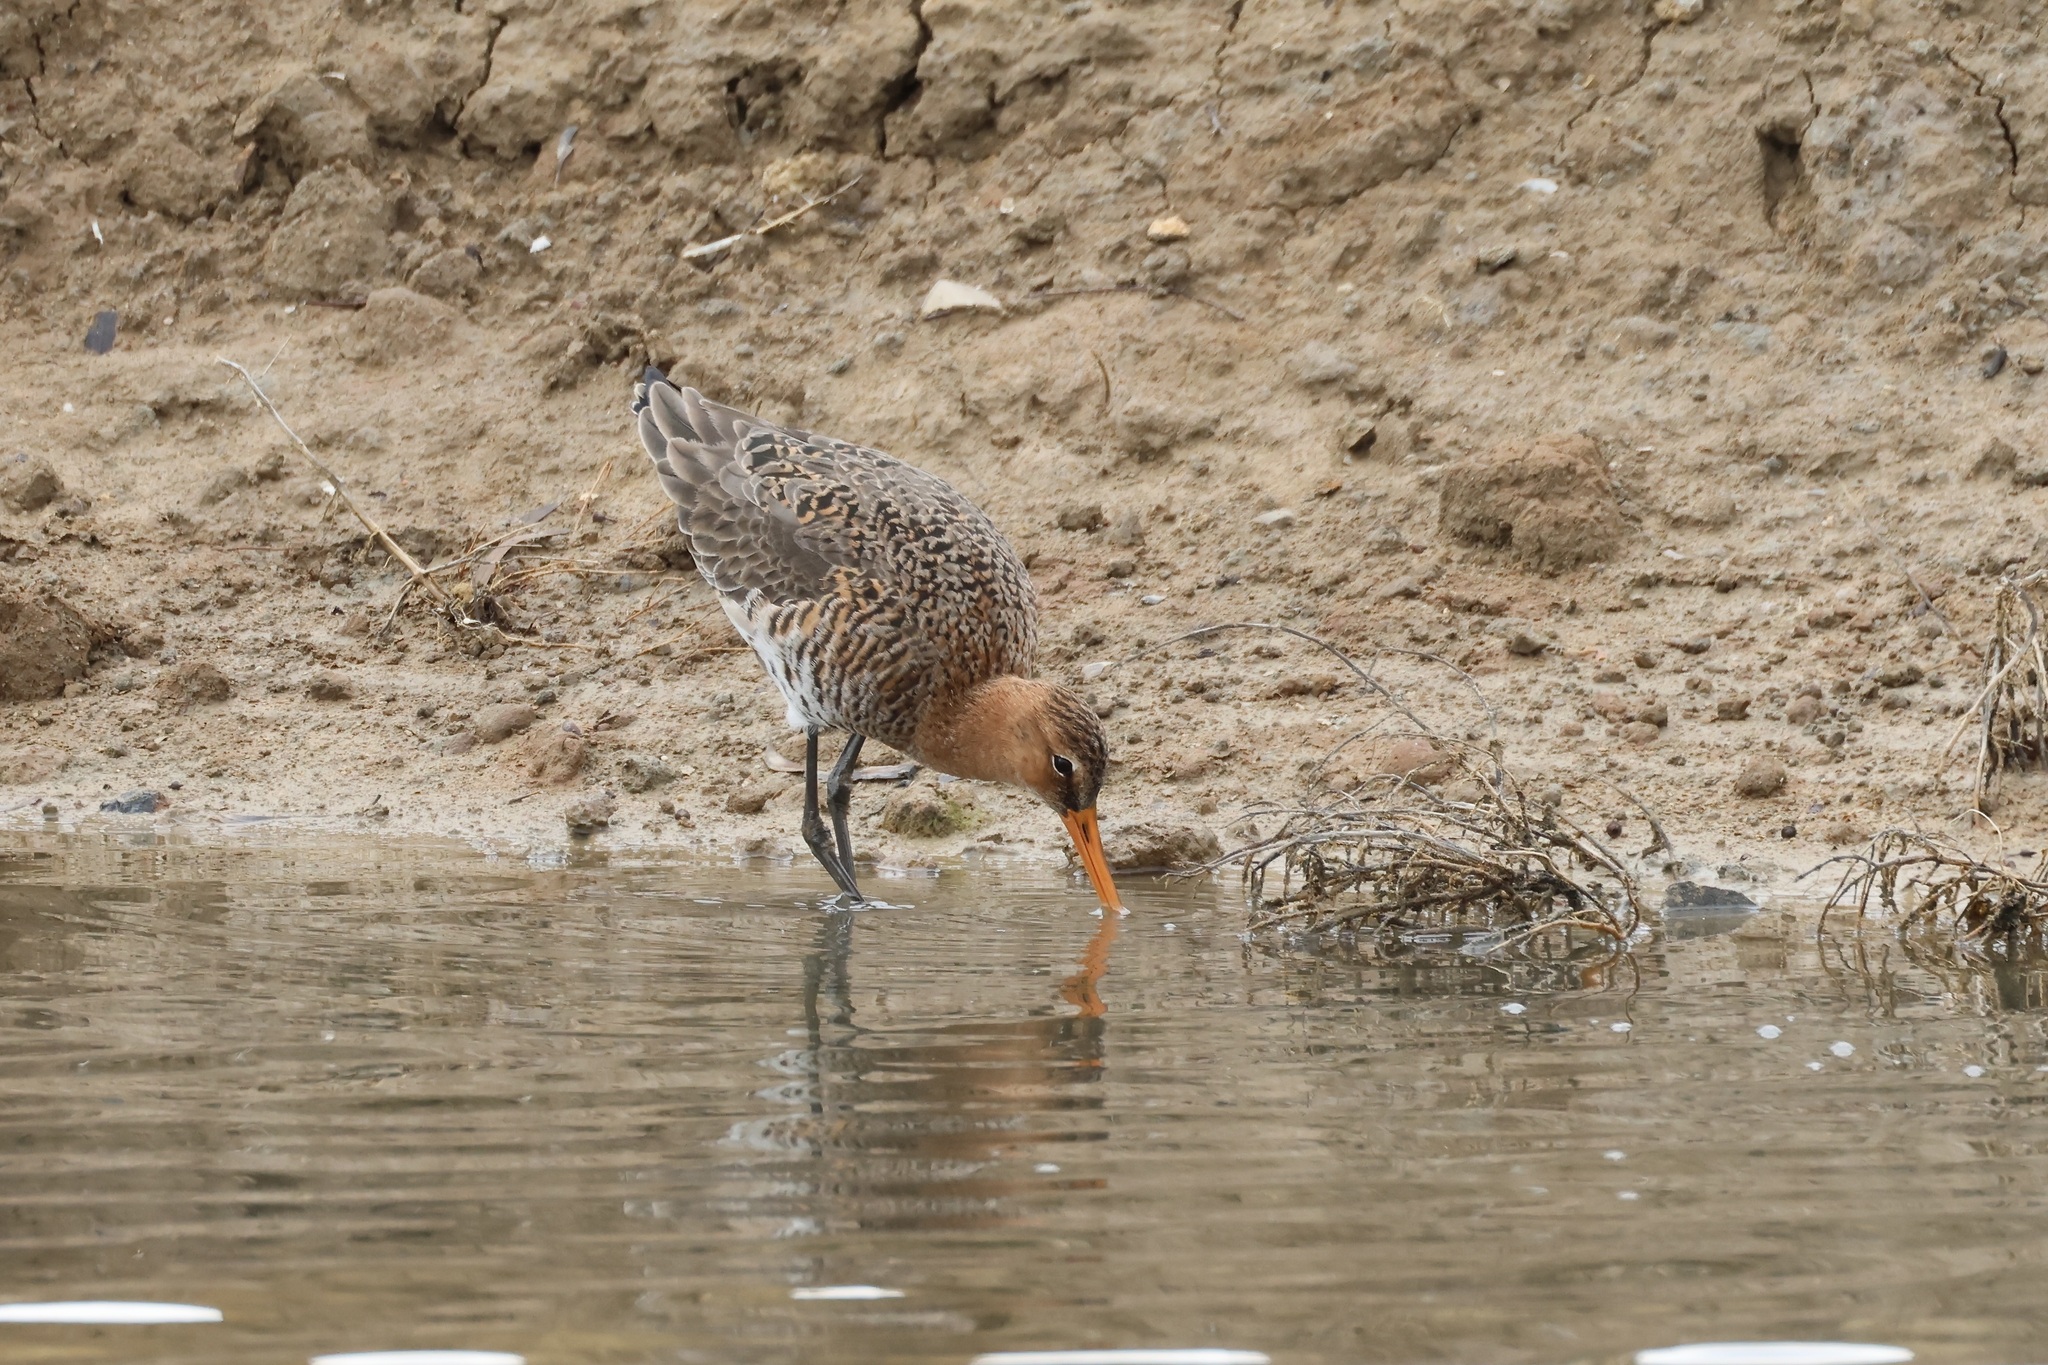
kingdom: Animalia
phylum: Chordata
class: Aves
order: Charadriiformes
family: Scolopacidae
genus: Limosa
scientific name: Limosa limosa
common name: Black-tailed godwit
